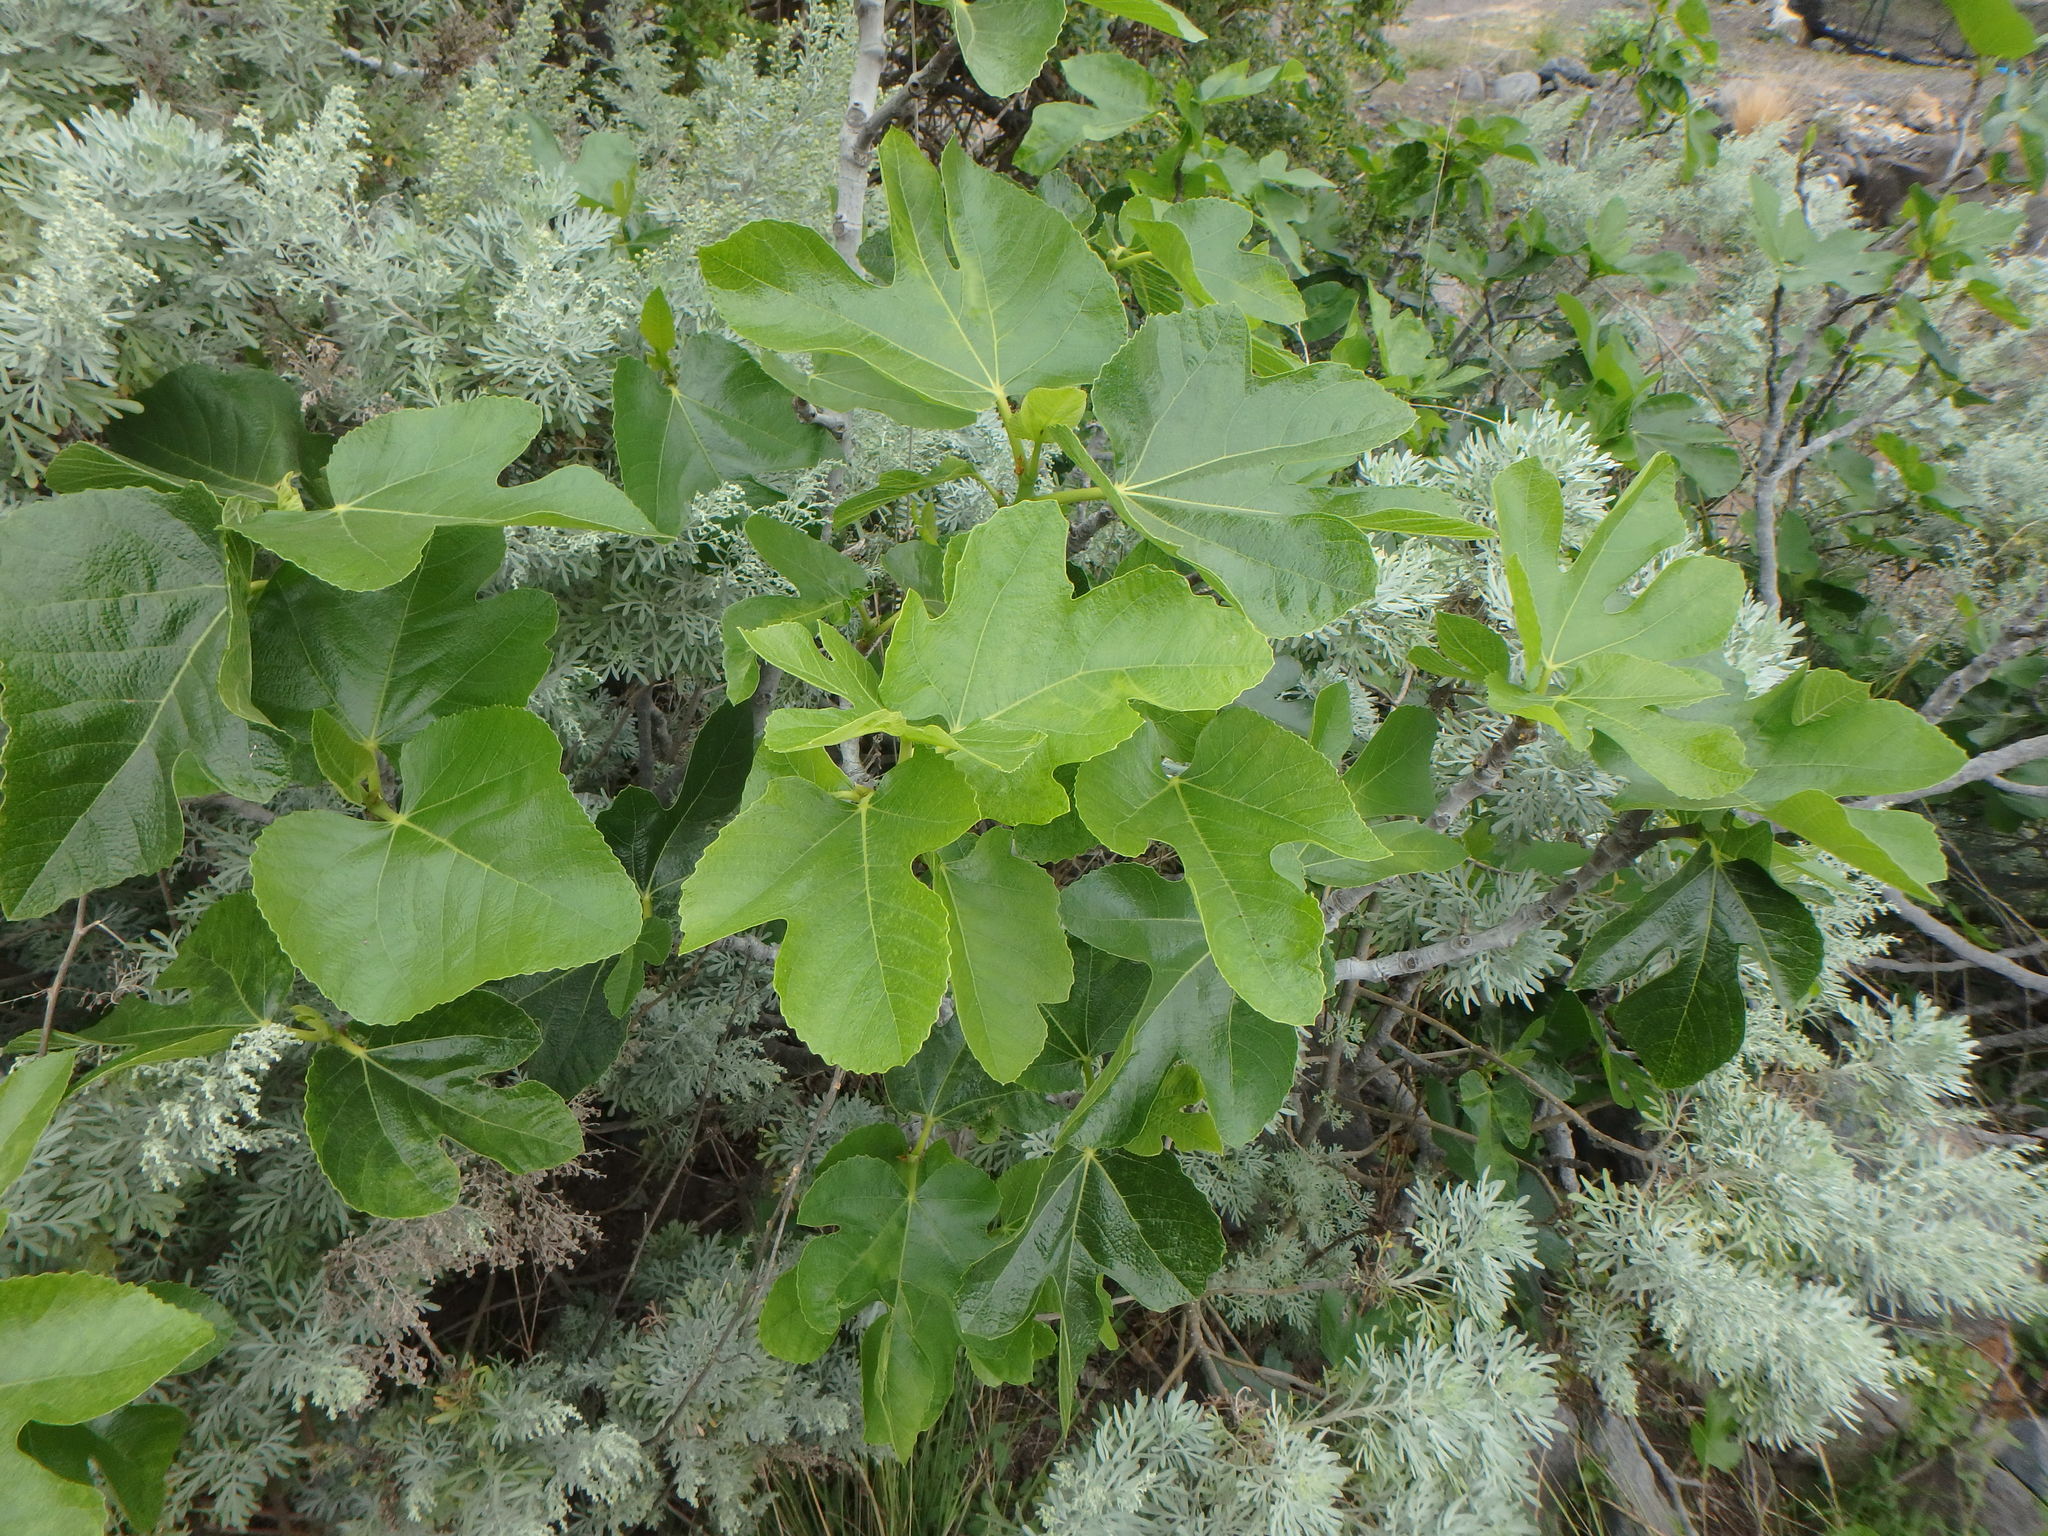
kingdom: Plantae
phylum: Tracheophyta
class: Magnoliopsida
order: Rosales
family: Moraceae
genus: Ficus
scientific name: Ficus carica
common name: Fig
